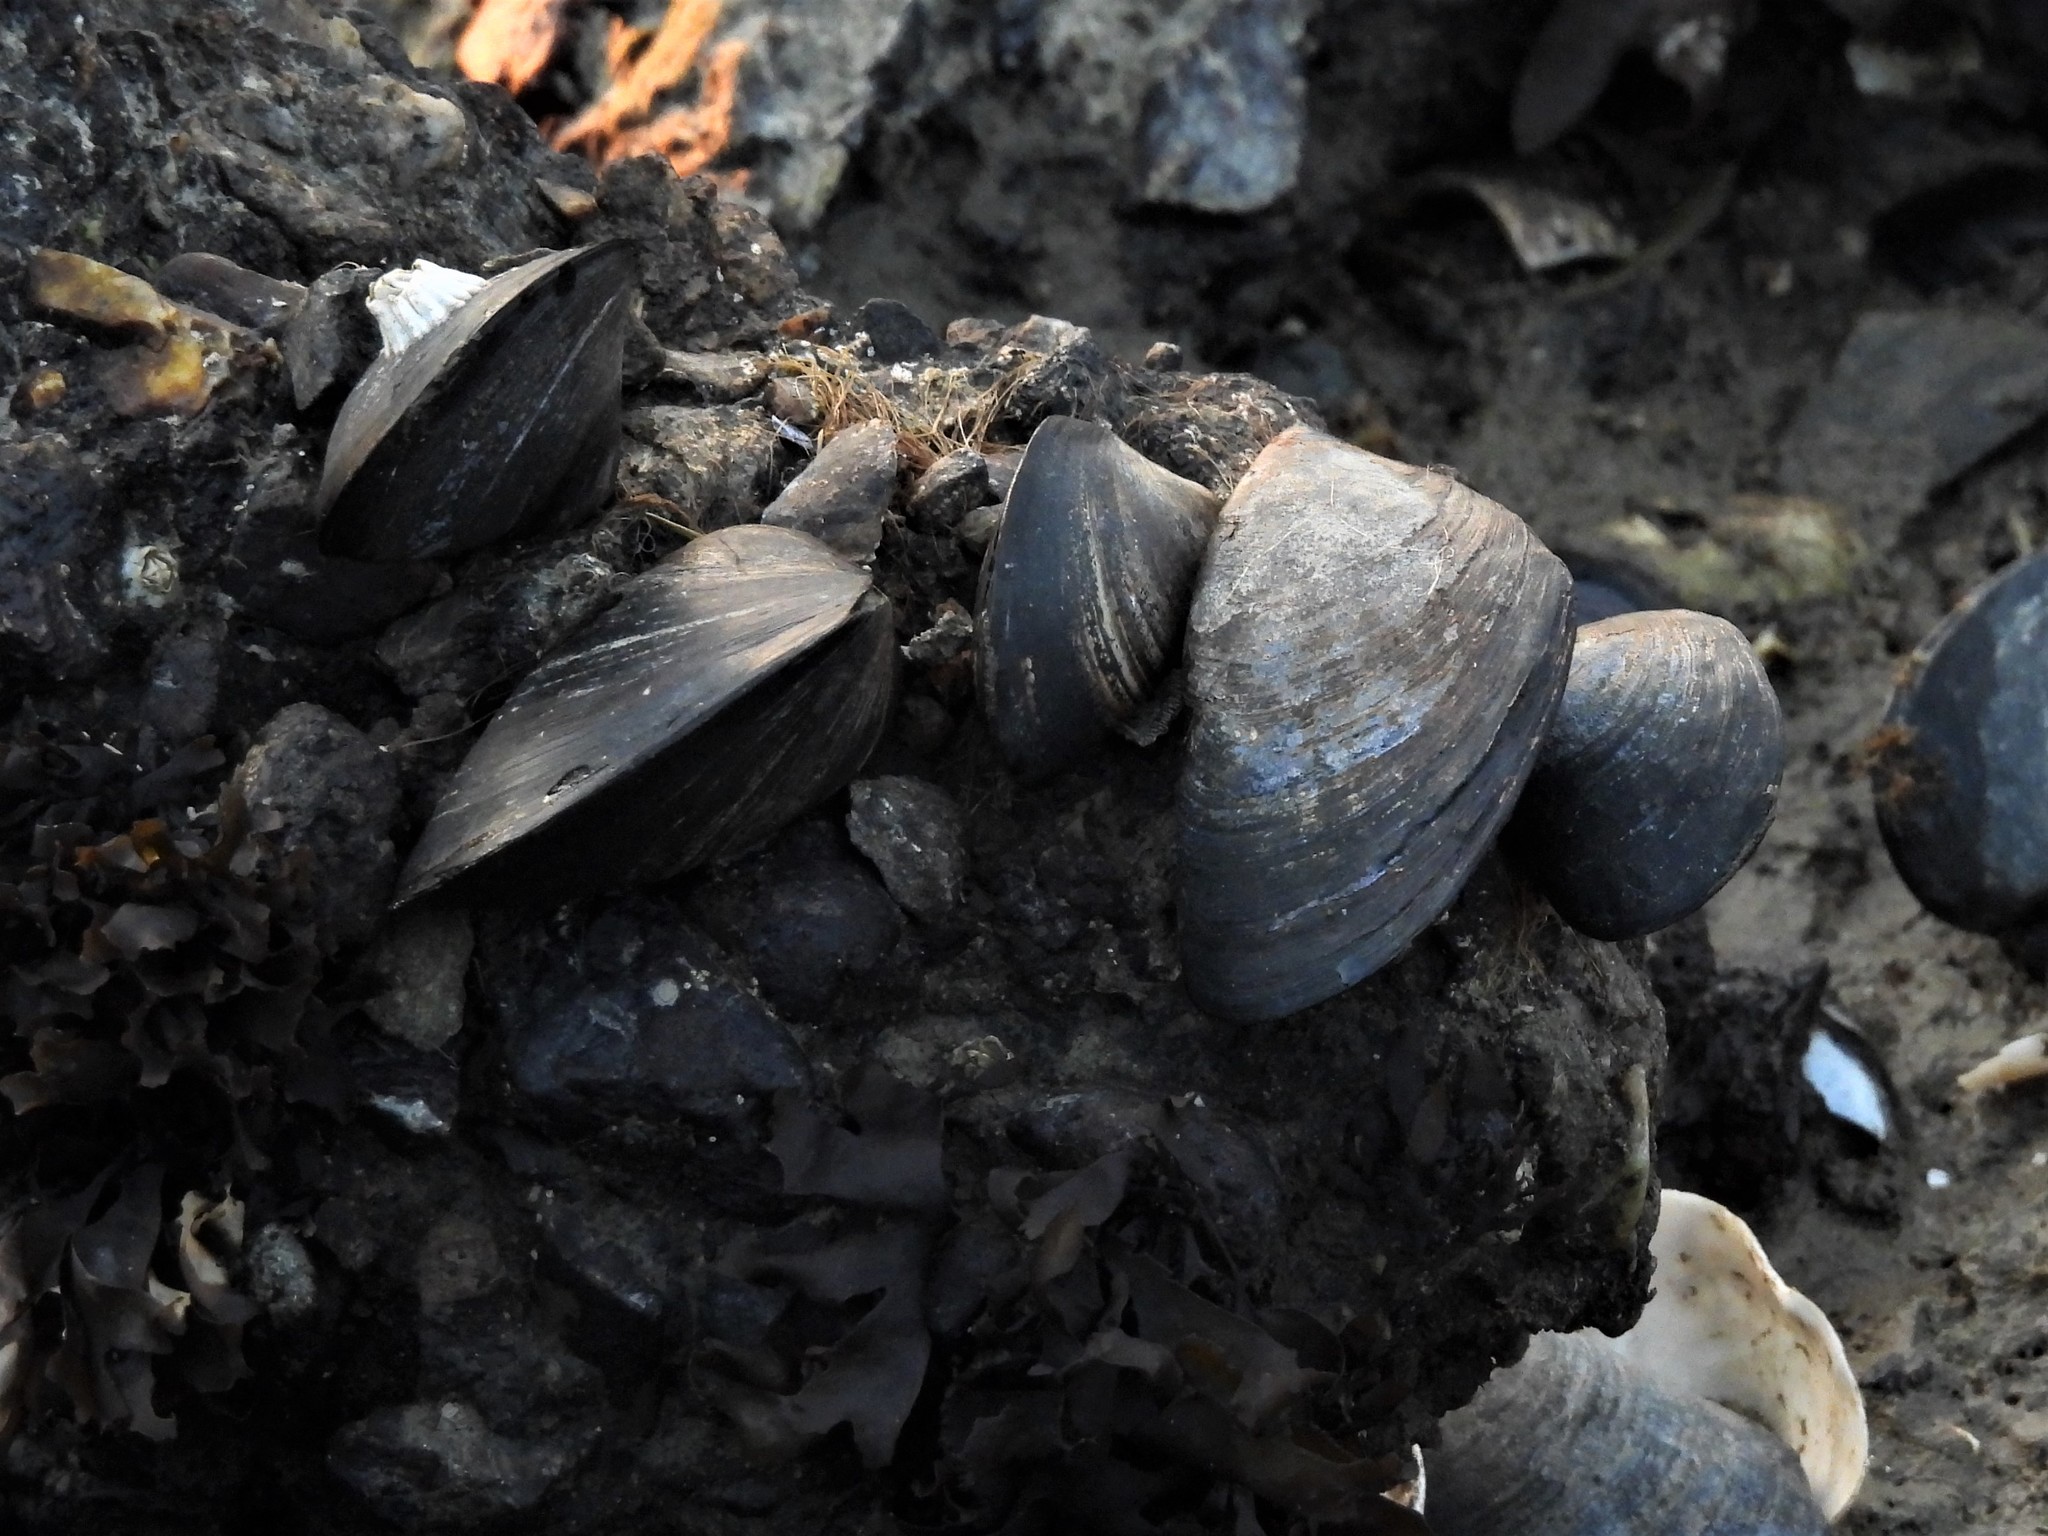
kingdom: Animalia
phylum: Mollusca
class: Bivalvia
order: Mytilida
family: Mytilidae
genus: Mytilus
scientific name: Mytilus
